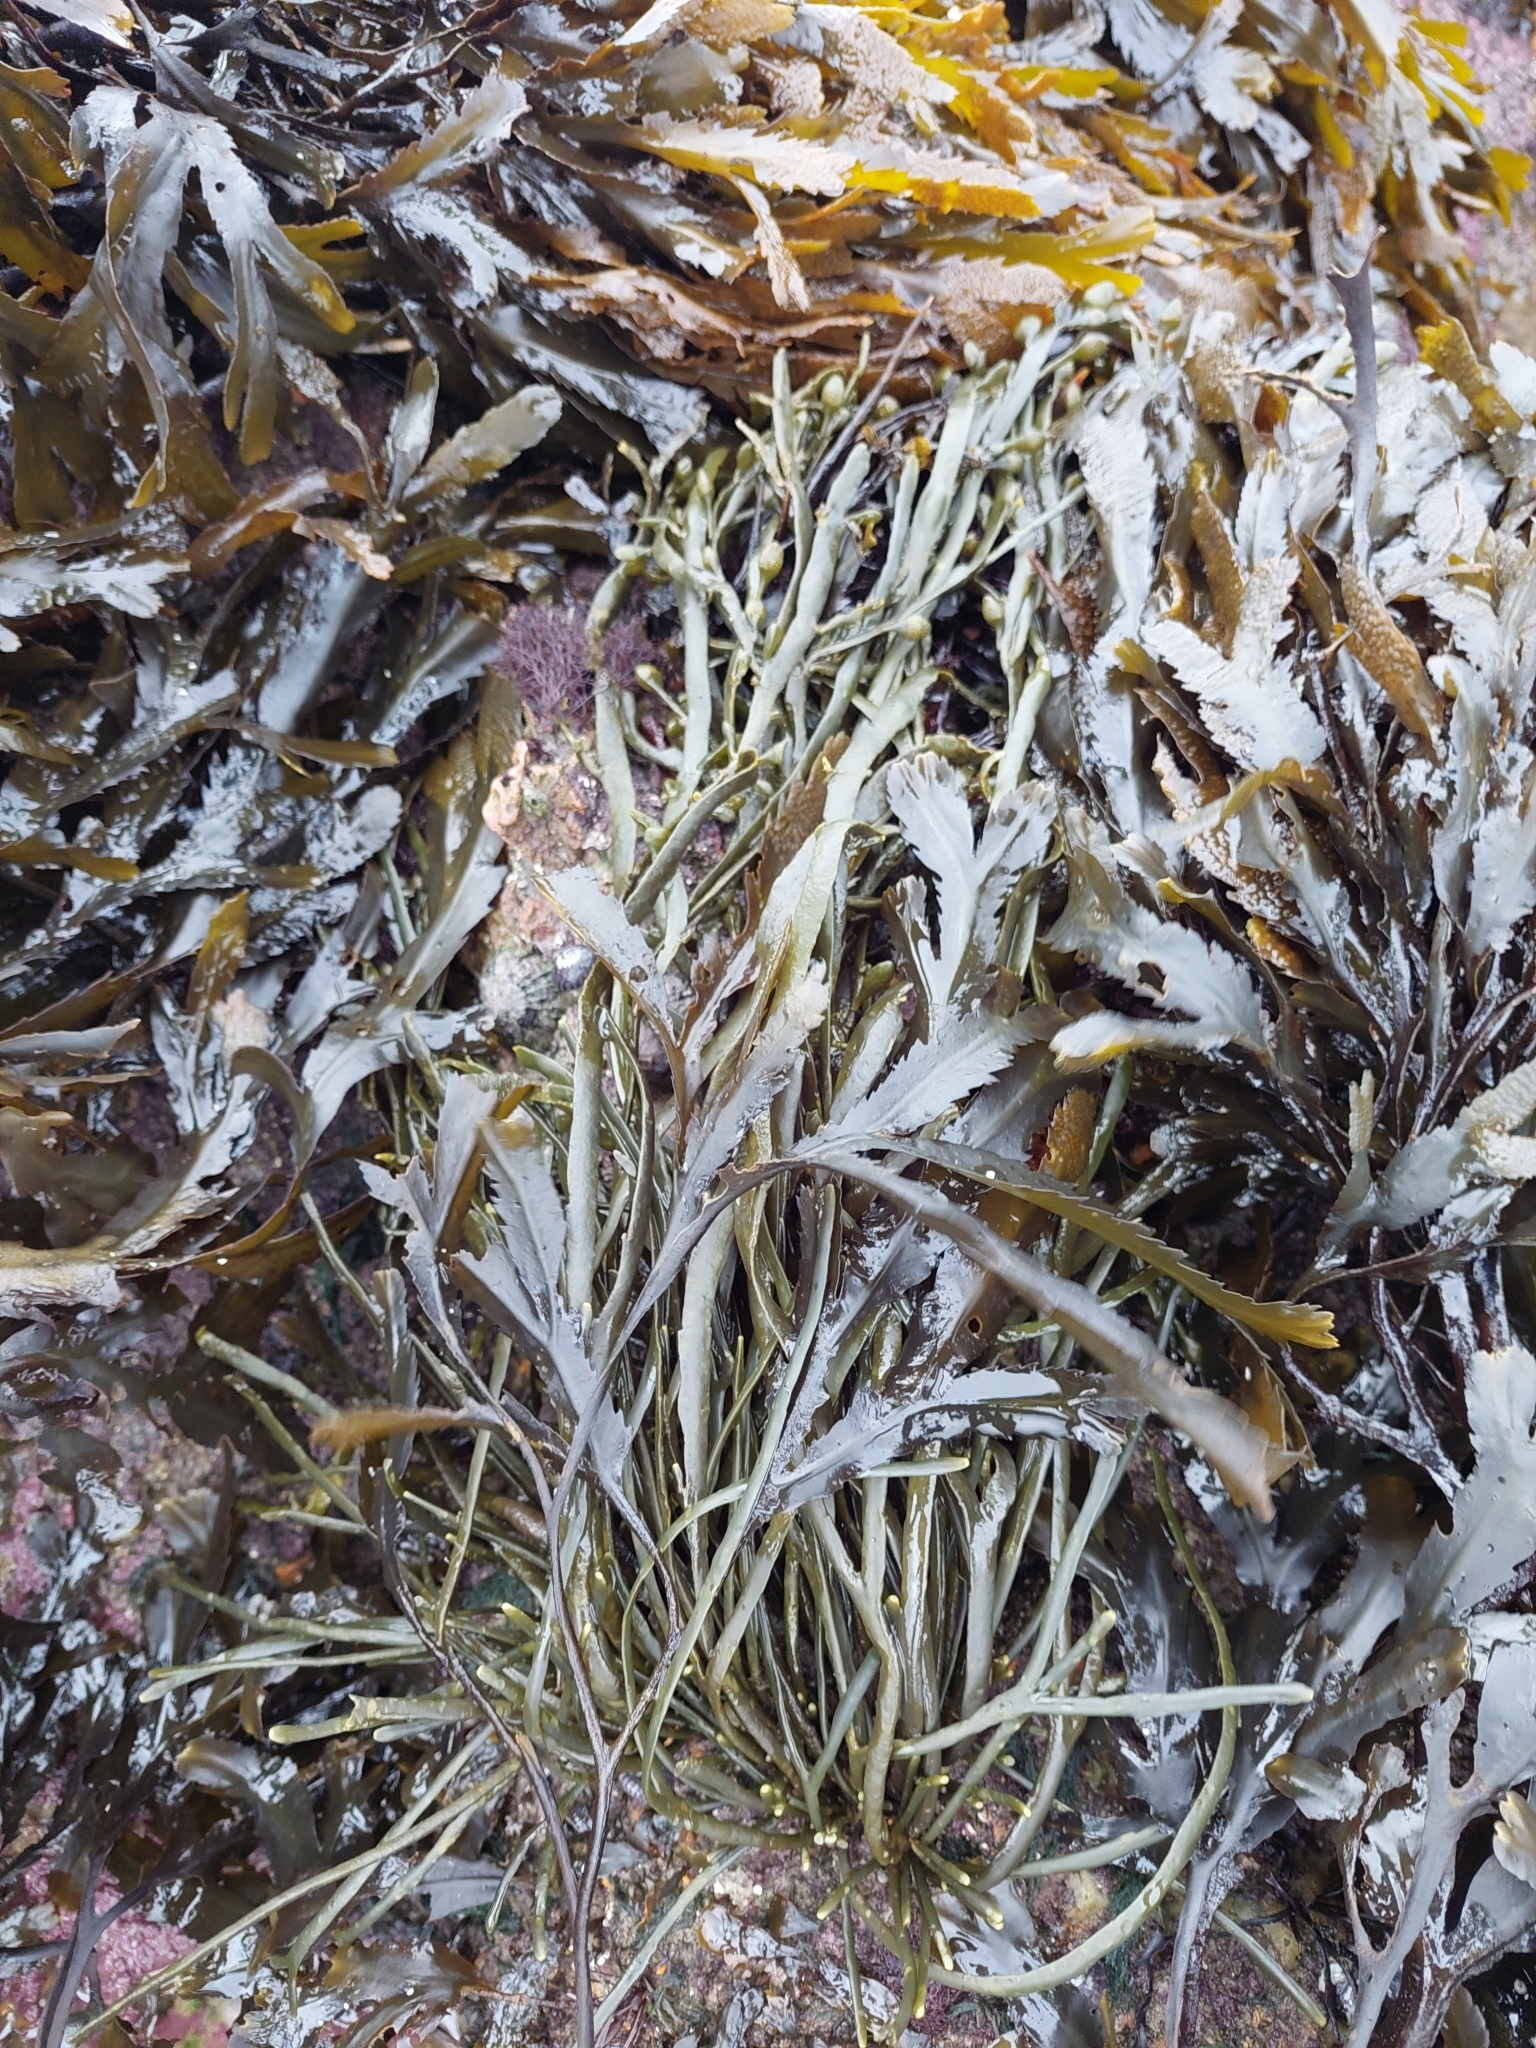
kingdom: Chromista
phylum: Ochrophyta
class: Phaeophyceae
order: Fucales
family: Fucaceae
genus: Ascophyllum
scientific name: Ascophyllum nodosum
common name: Knotted wrack
